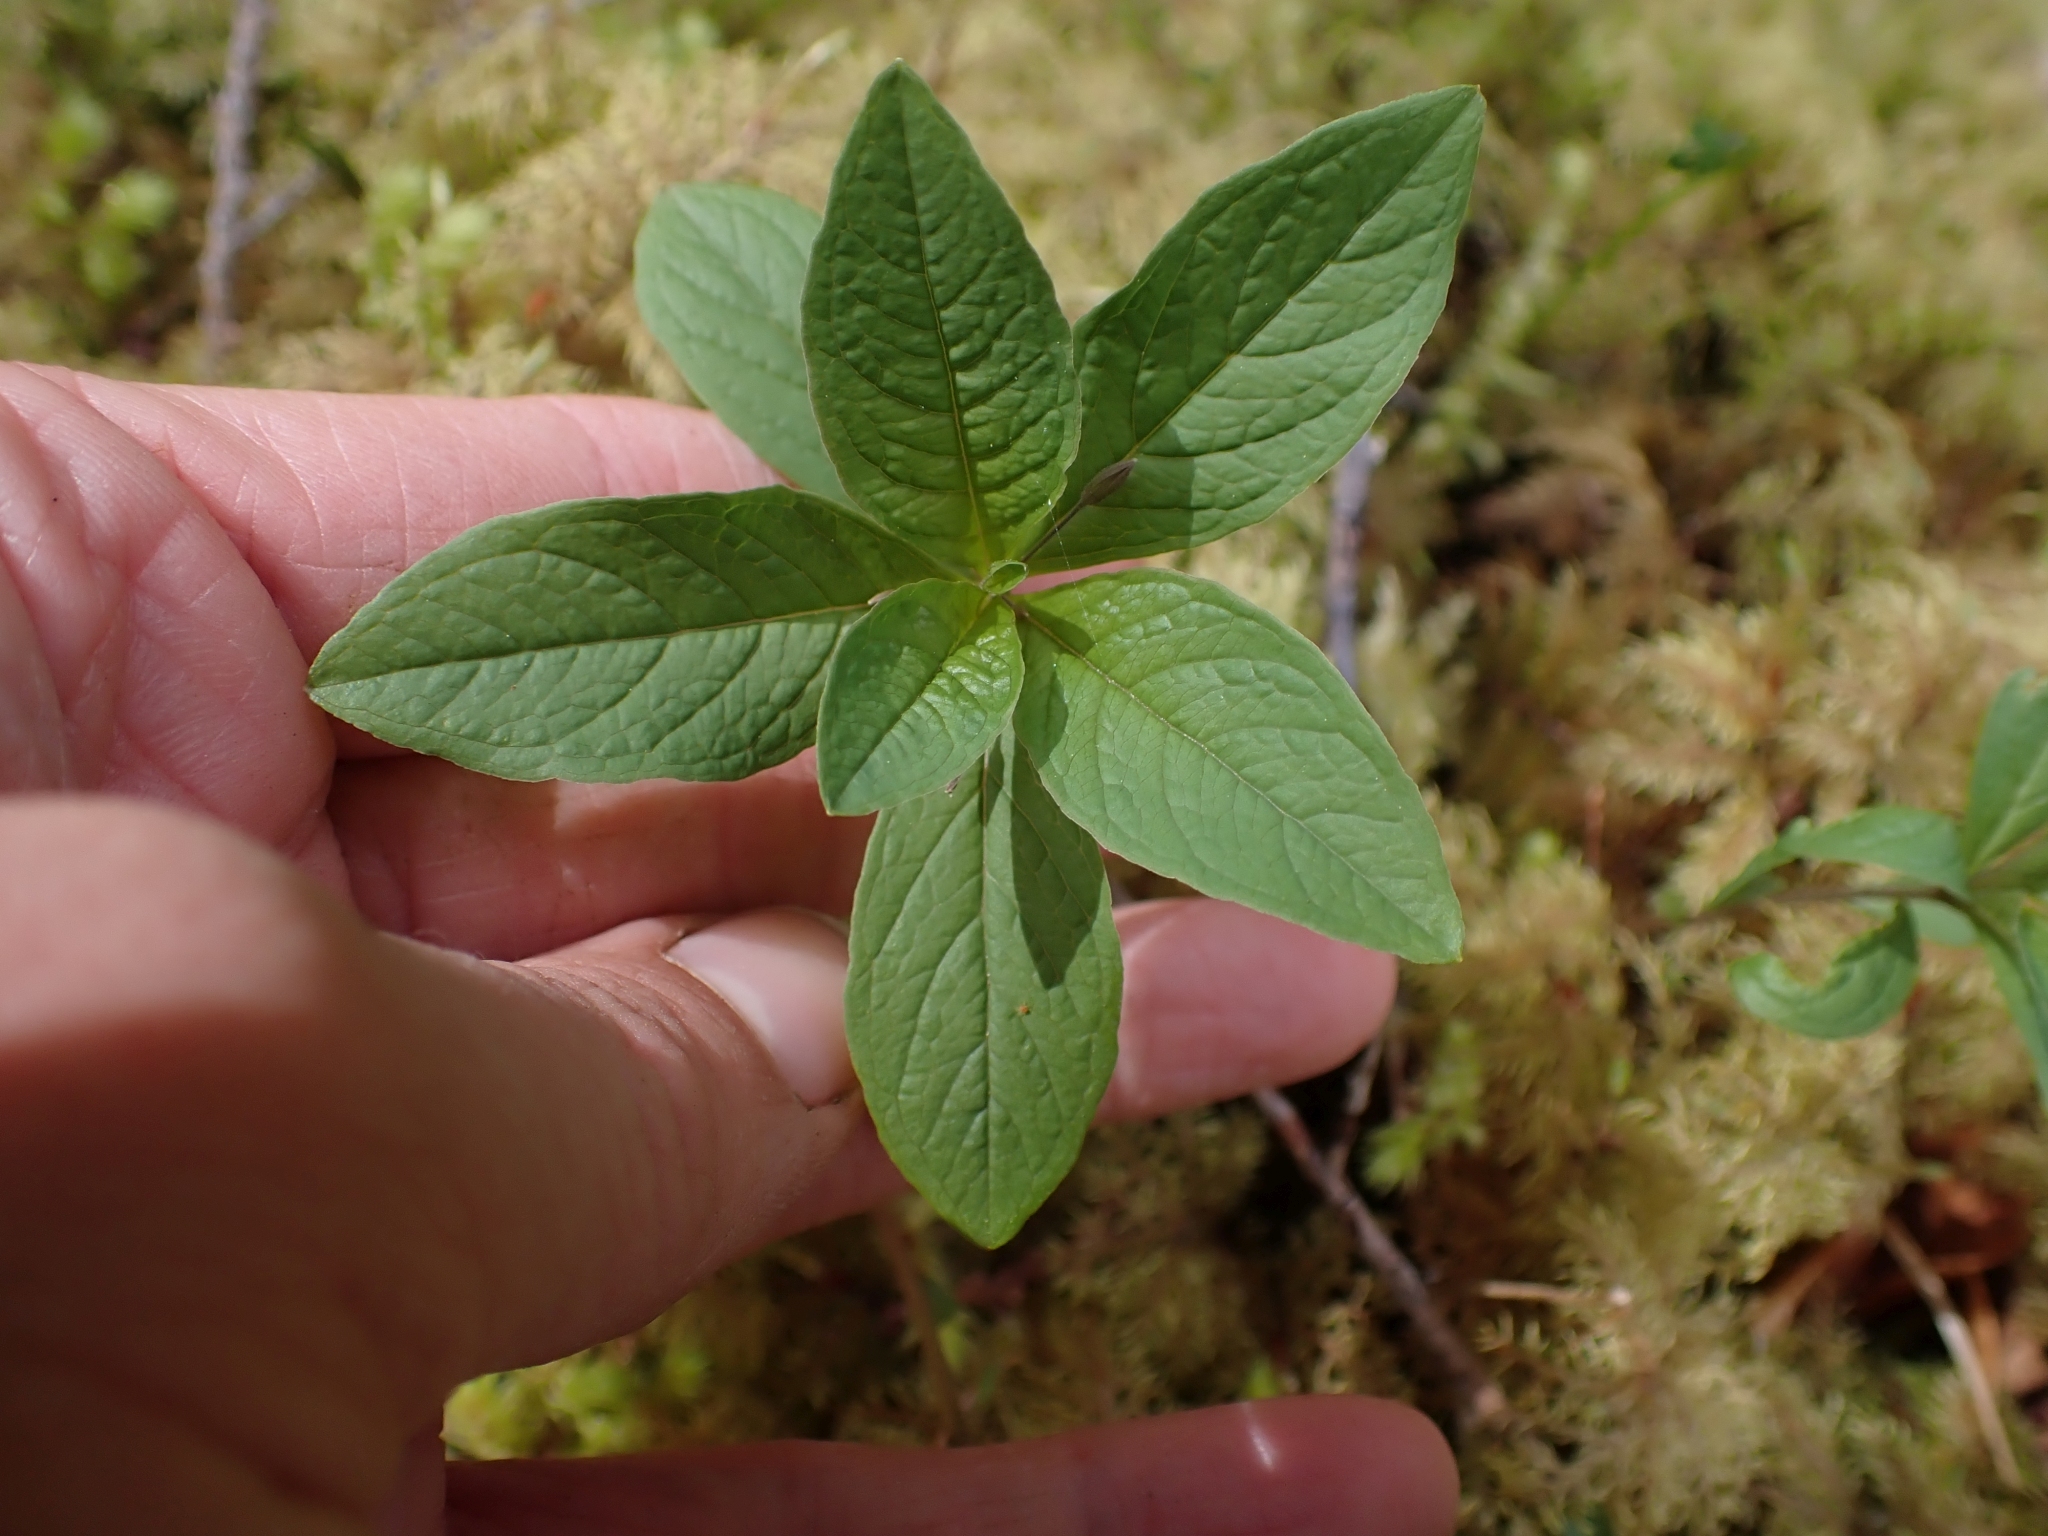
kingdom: Plantae
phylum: Tracheophyta
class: Magnoliopsida
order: Ericales
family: Primulaceae
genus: Lysimachia
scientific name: Lysimachia latifolia
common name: Pacific starflower
